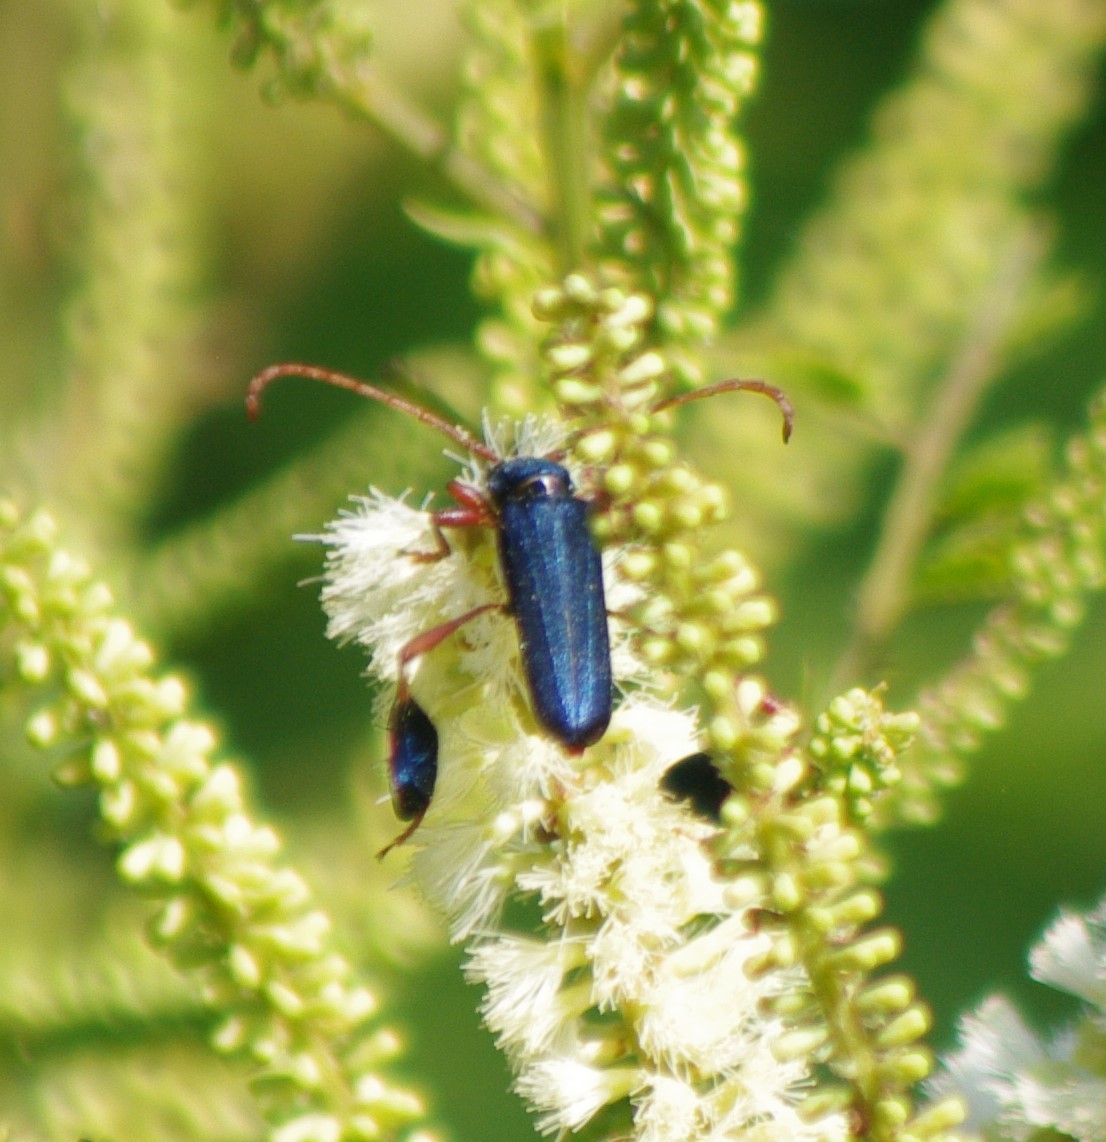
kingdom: Animalia
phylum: Arthropoda
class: Insecta
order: Coleoptera
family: Cerambycidae
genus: Phyllocnema
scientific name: Phyllocnema holubi
